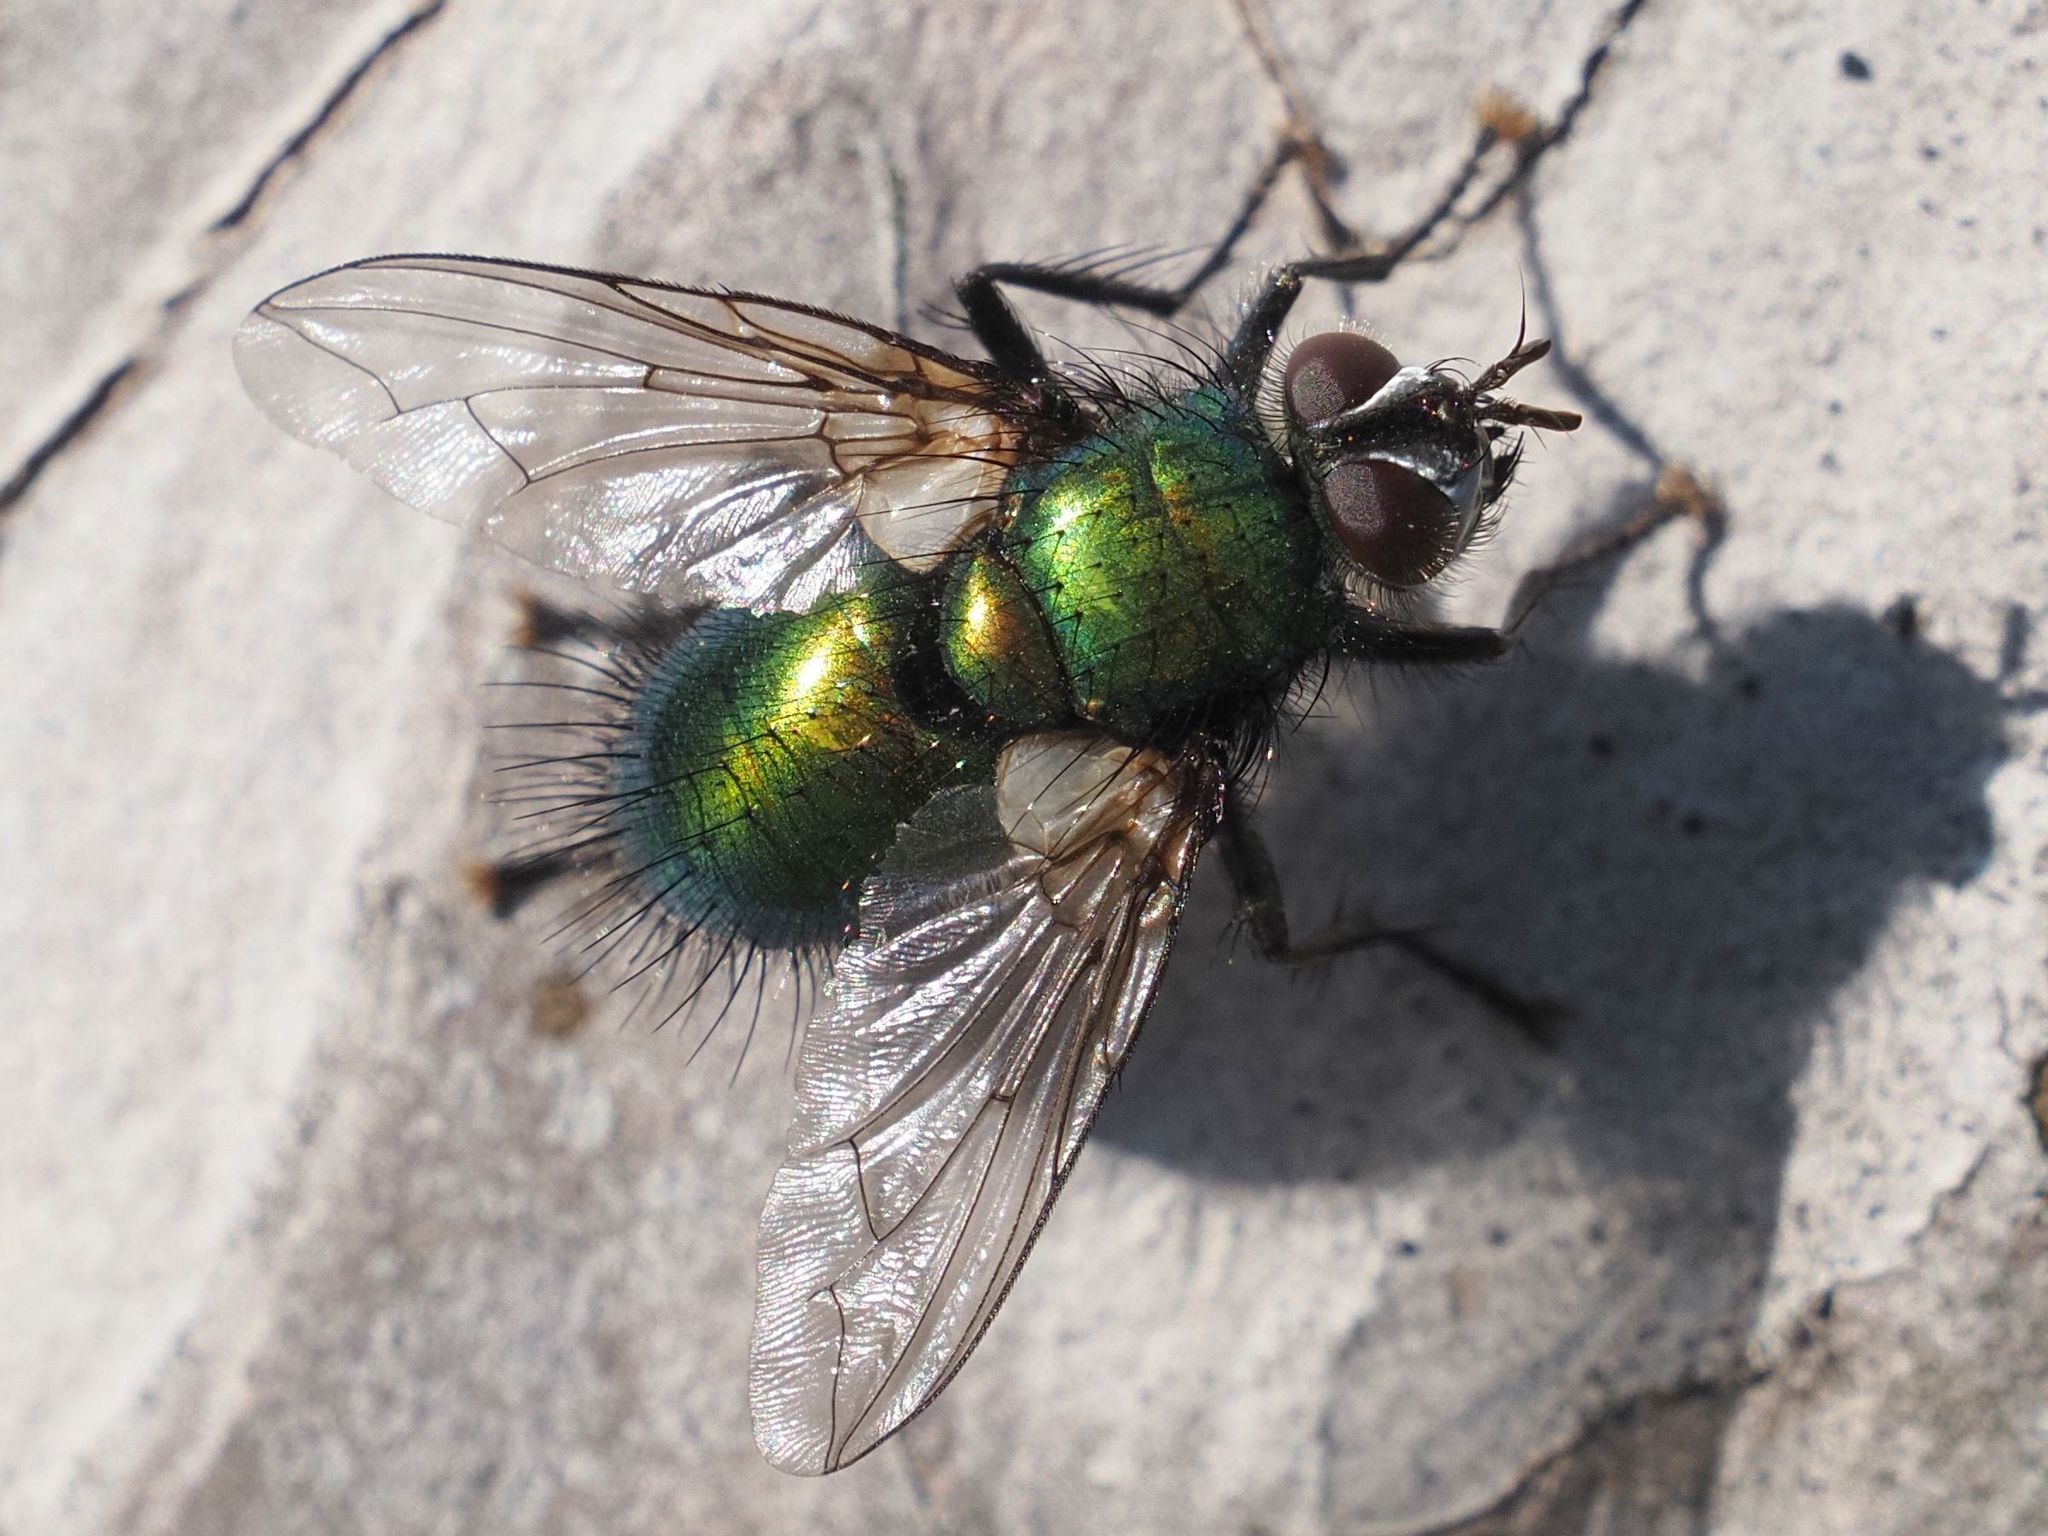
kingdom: Animalia
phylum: Arthropoda
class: Insecta
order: Diptera
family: Tachinidae
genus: Gymnocheta
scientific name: Gymnocheta viridis
